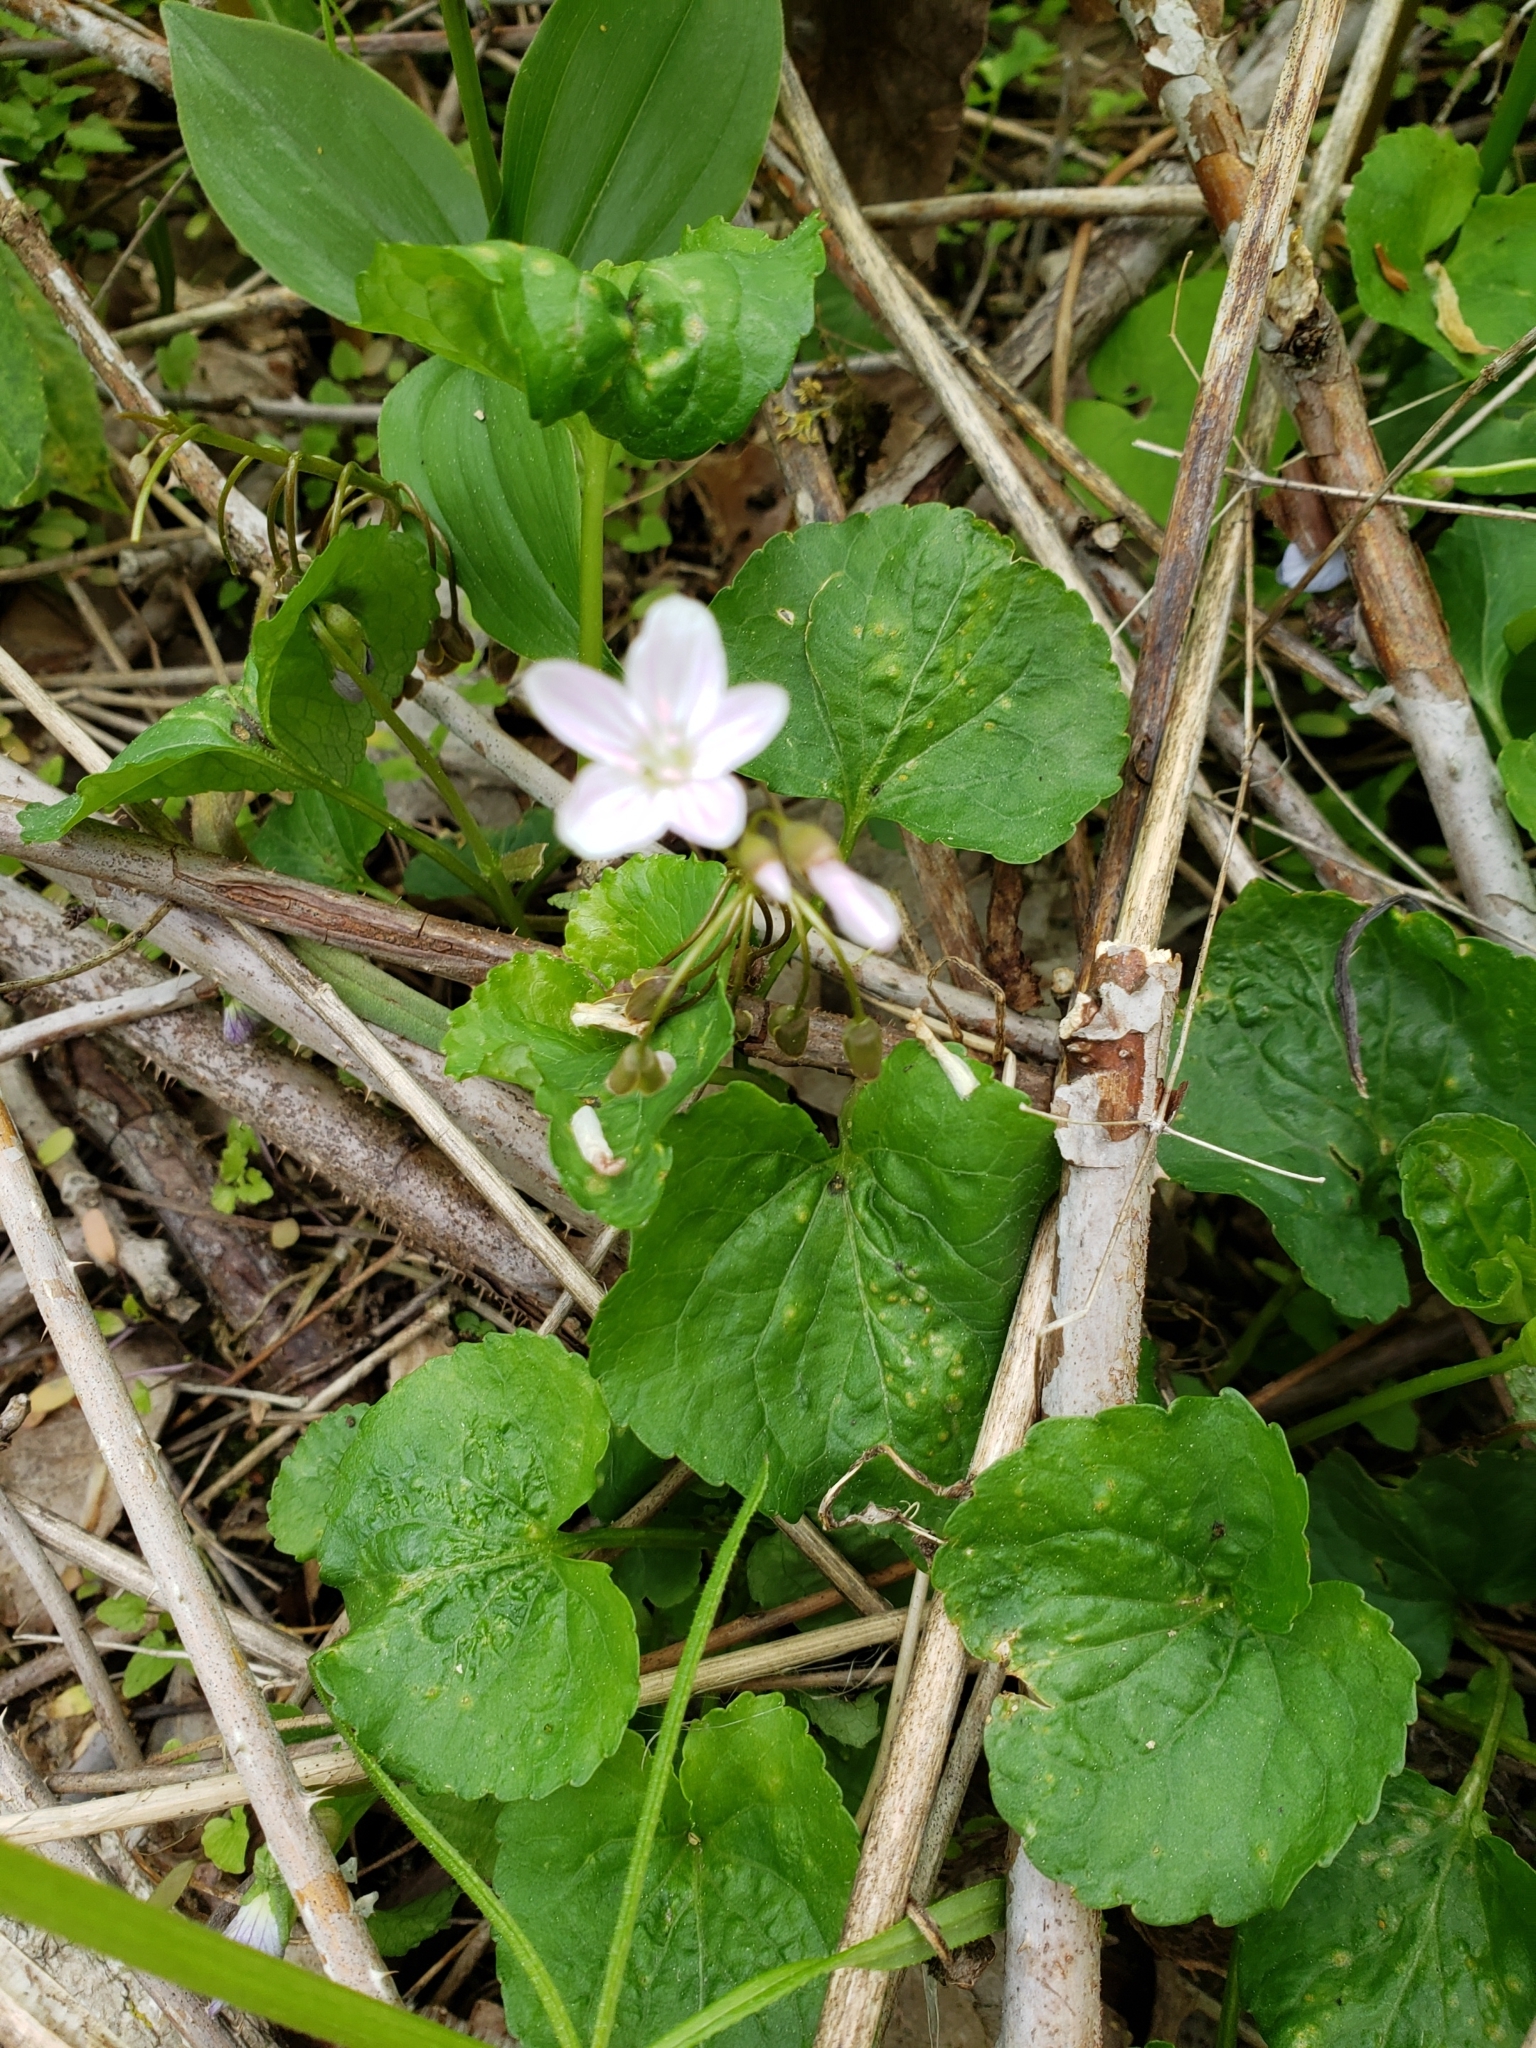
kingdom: Plantae
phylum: Tracheophyta
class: Magnoliopsida
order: Caryophyllales
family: Montiaceae
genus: Claytonia
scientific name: Claytonia virginica
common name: Virginia springbeauty
